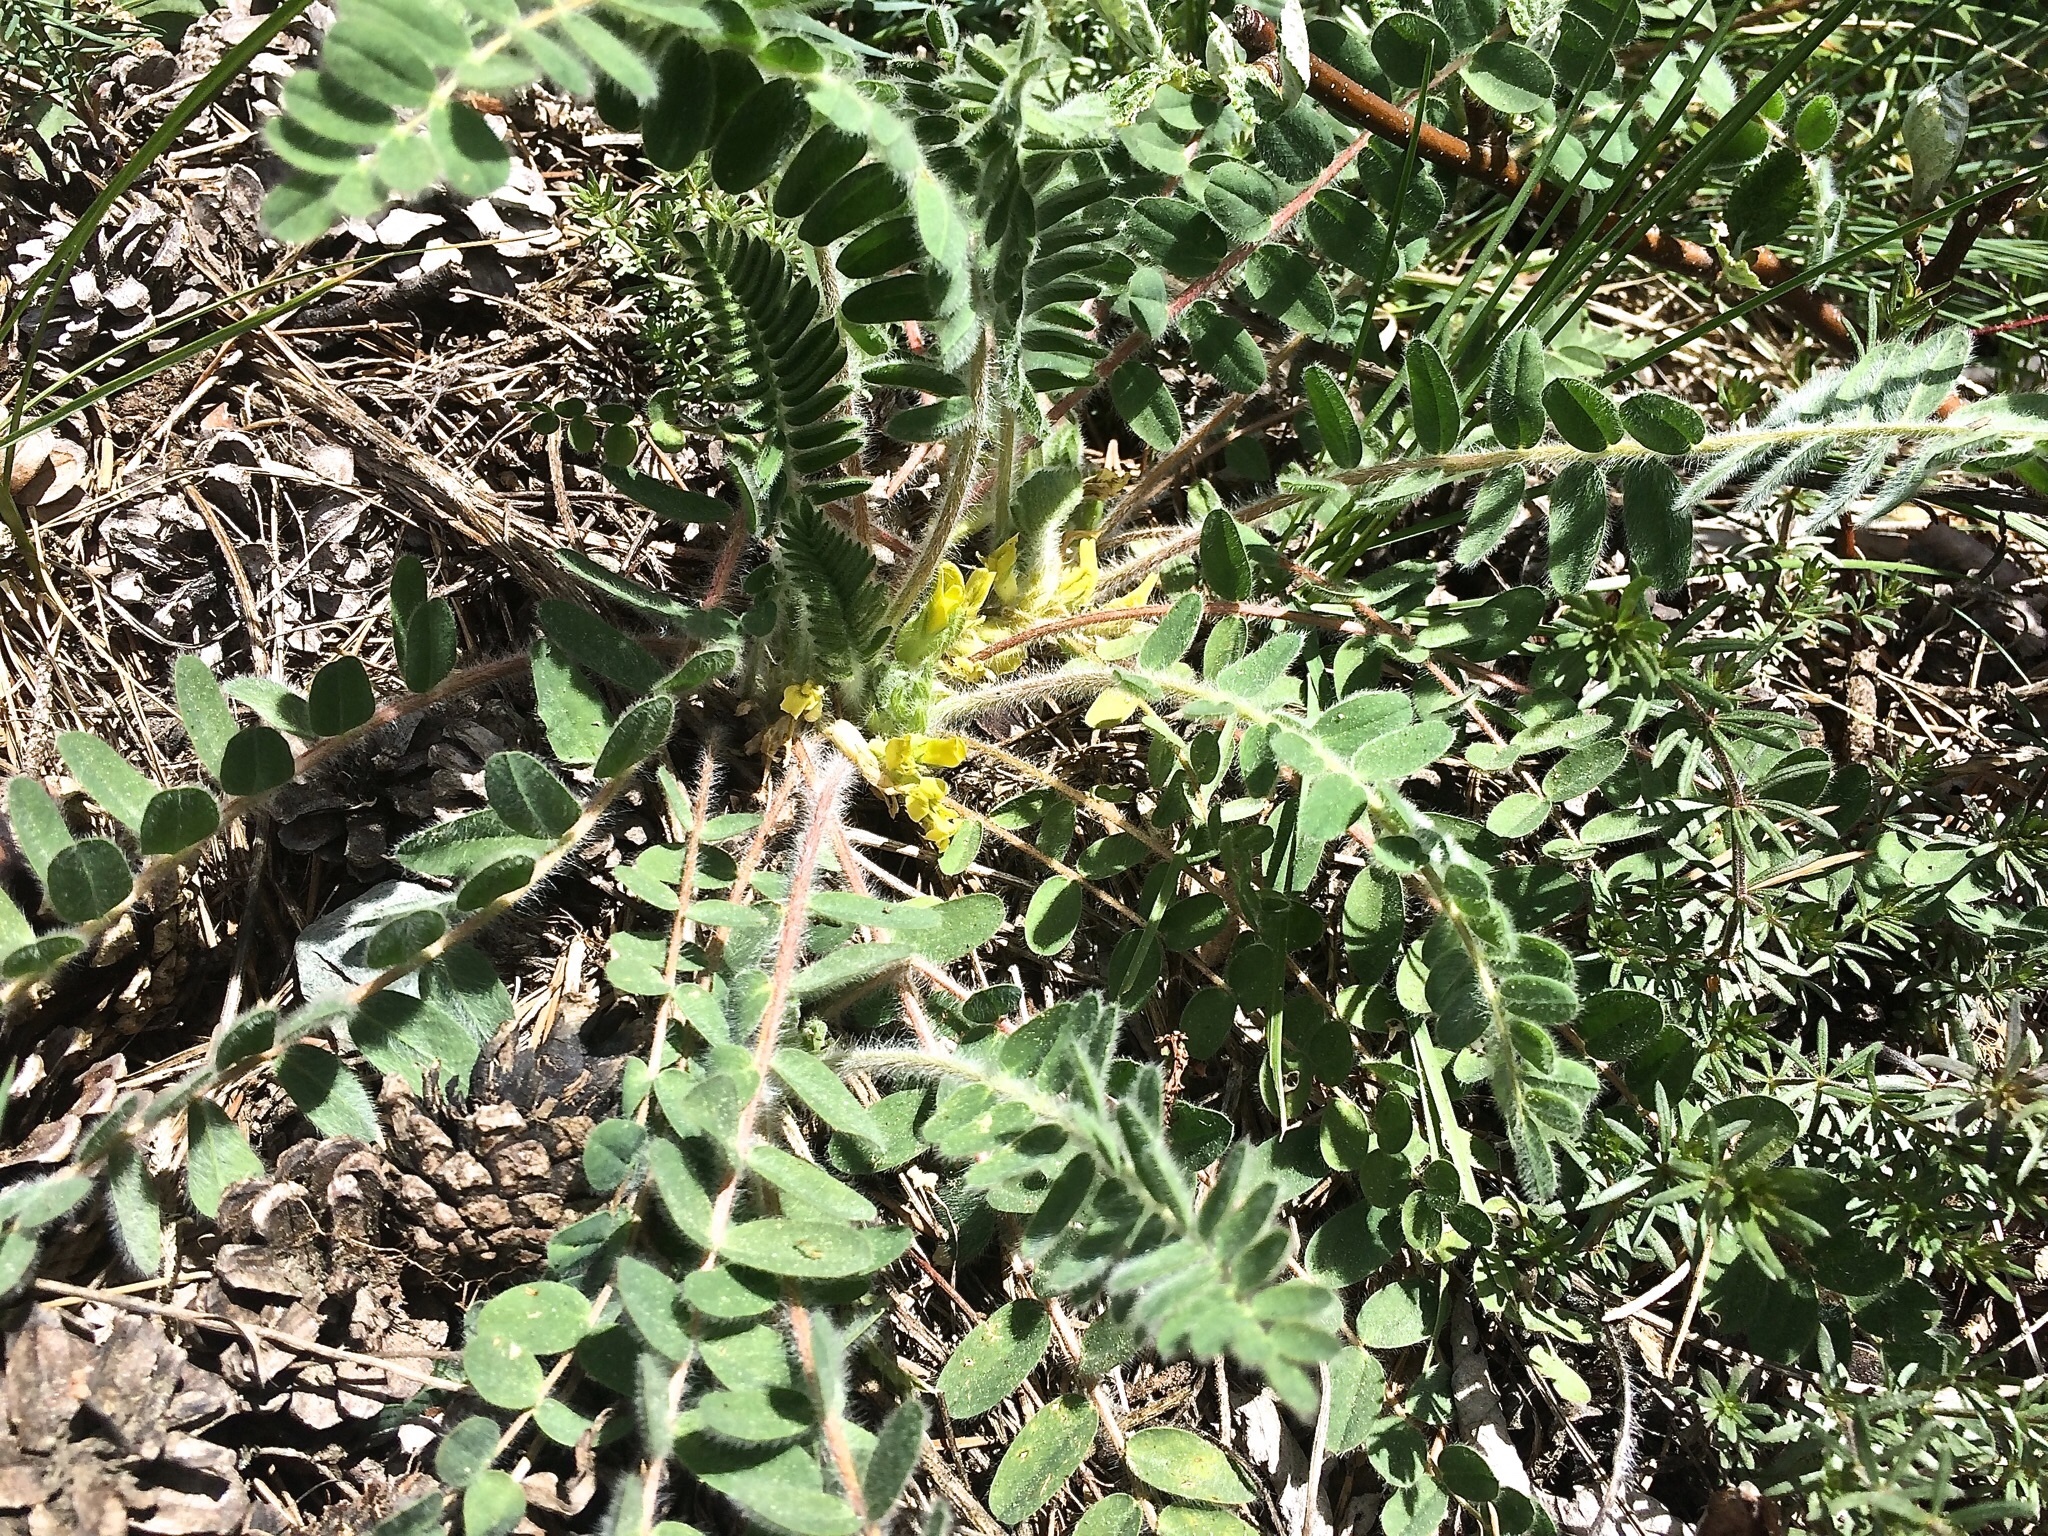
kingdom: Plantae
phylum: Tracheophyta
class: Magnoliopsida
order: Fabales
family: Fabaceae
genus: Astragalus
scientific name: Astragalus exscapus
